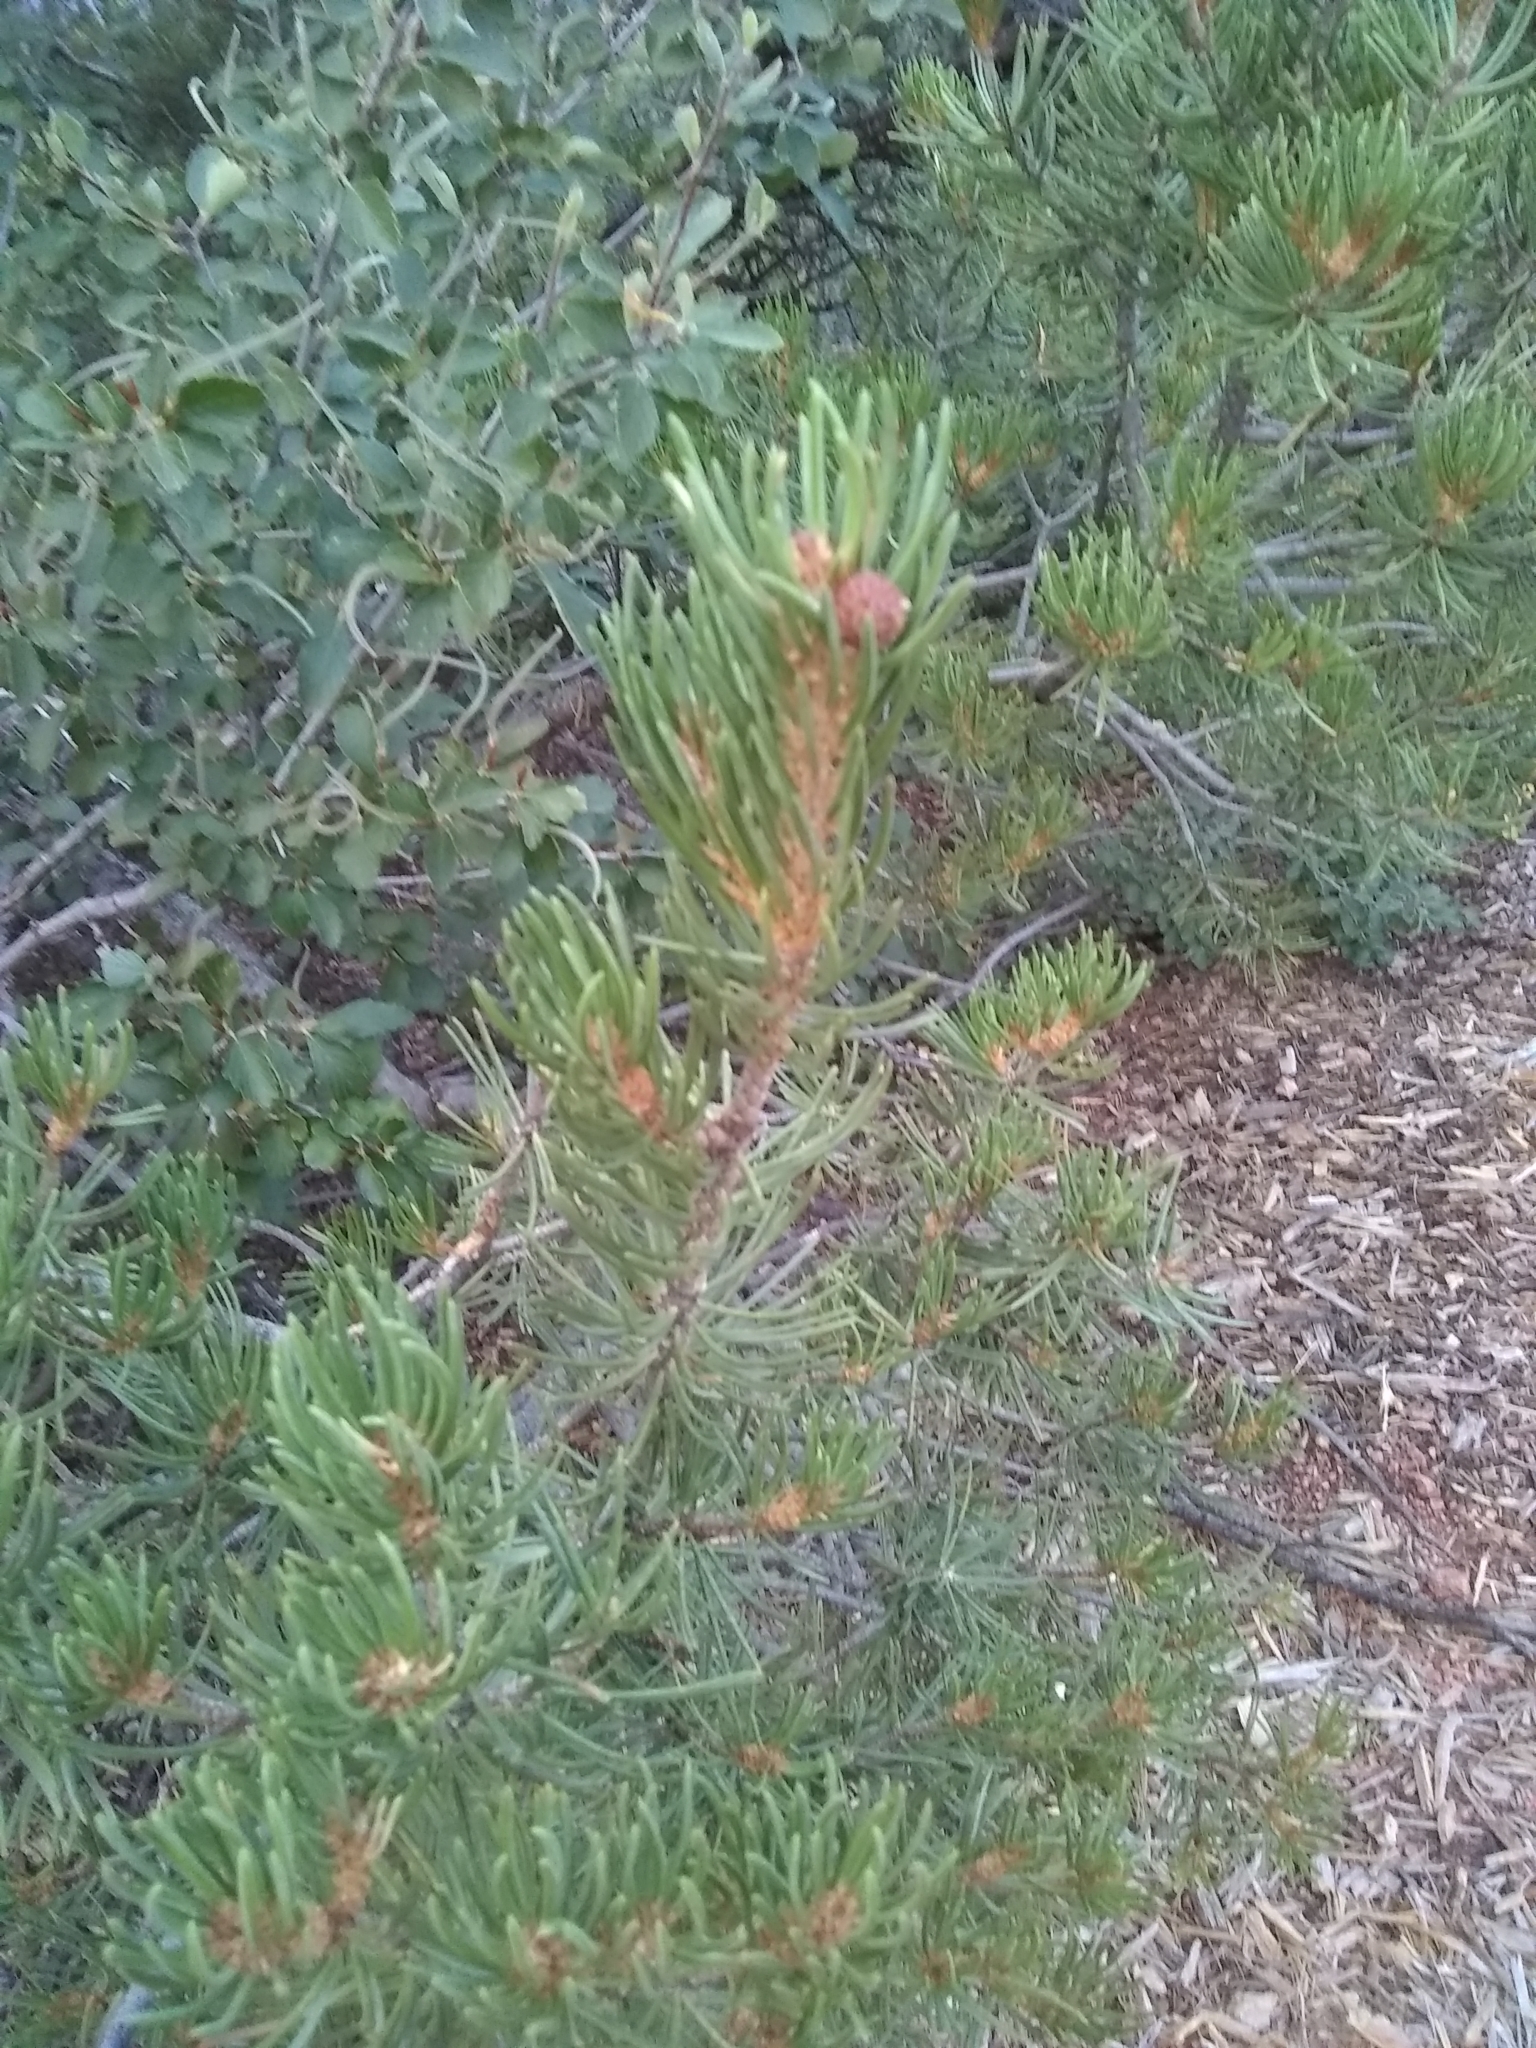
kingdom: Plantae
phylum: Tracheophyta
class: Pinopsida
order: Pinales
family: Pinaceae
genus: Pinus
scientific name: Pinus edulis
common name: Colorado pinyon
